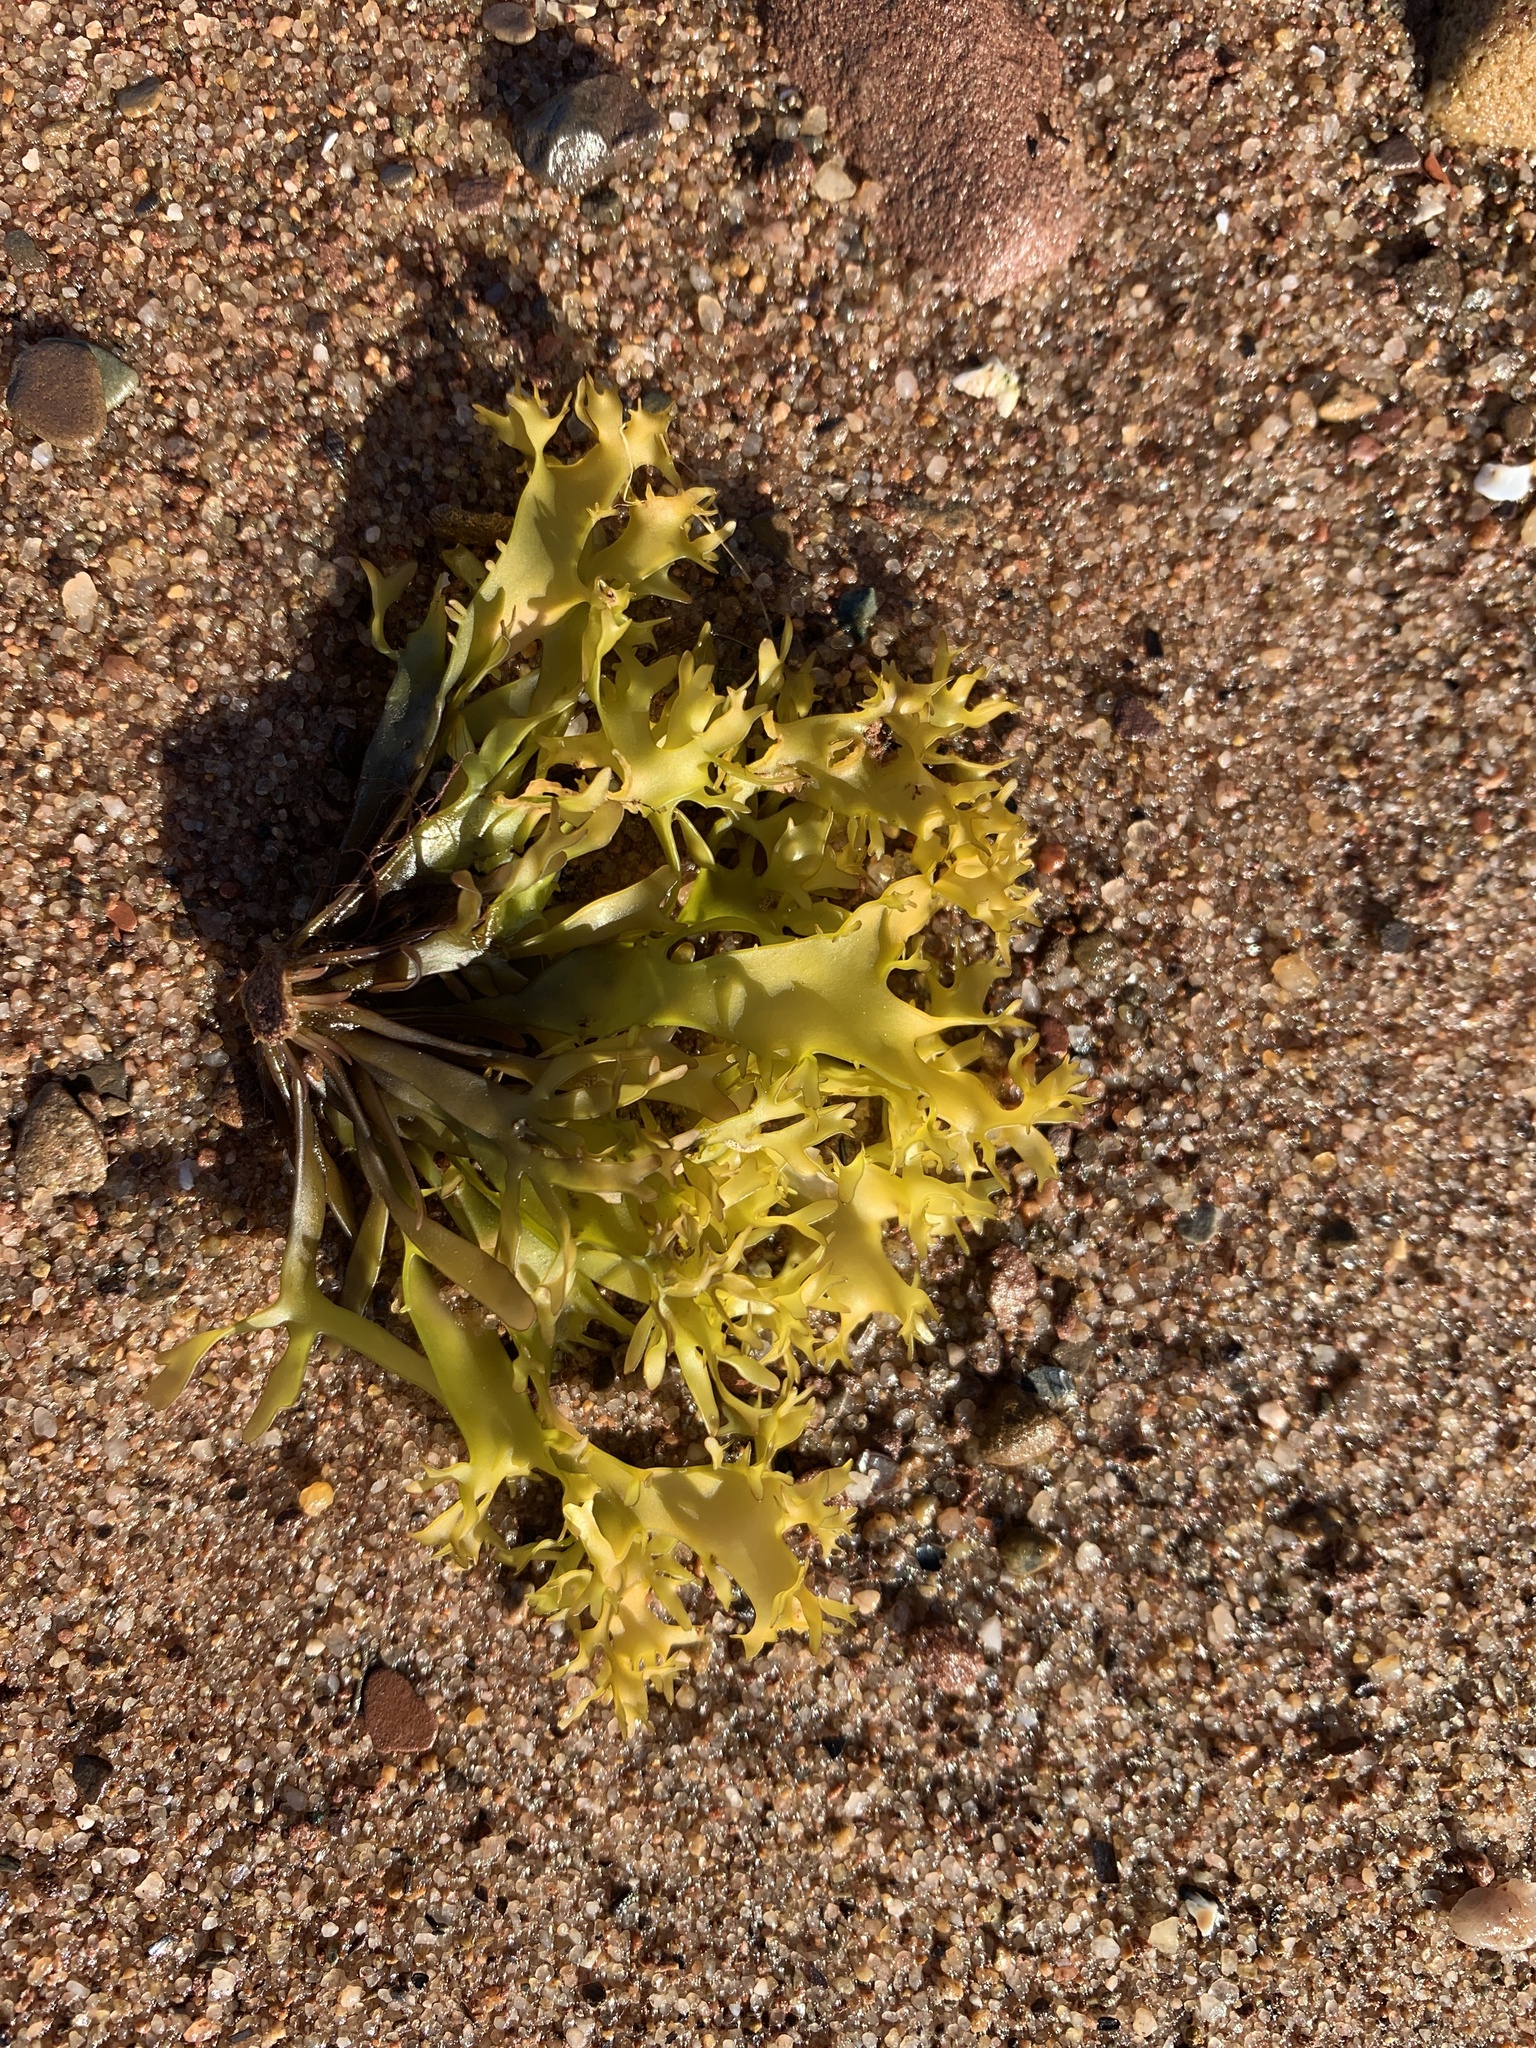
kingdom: Plantae
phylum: Rhodophyta
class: Florideophyceae
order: Gigartinales
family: Gigartinaceae
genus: Chondrus
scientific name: Chondrus crispus
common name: Carrageen
